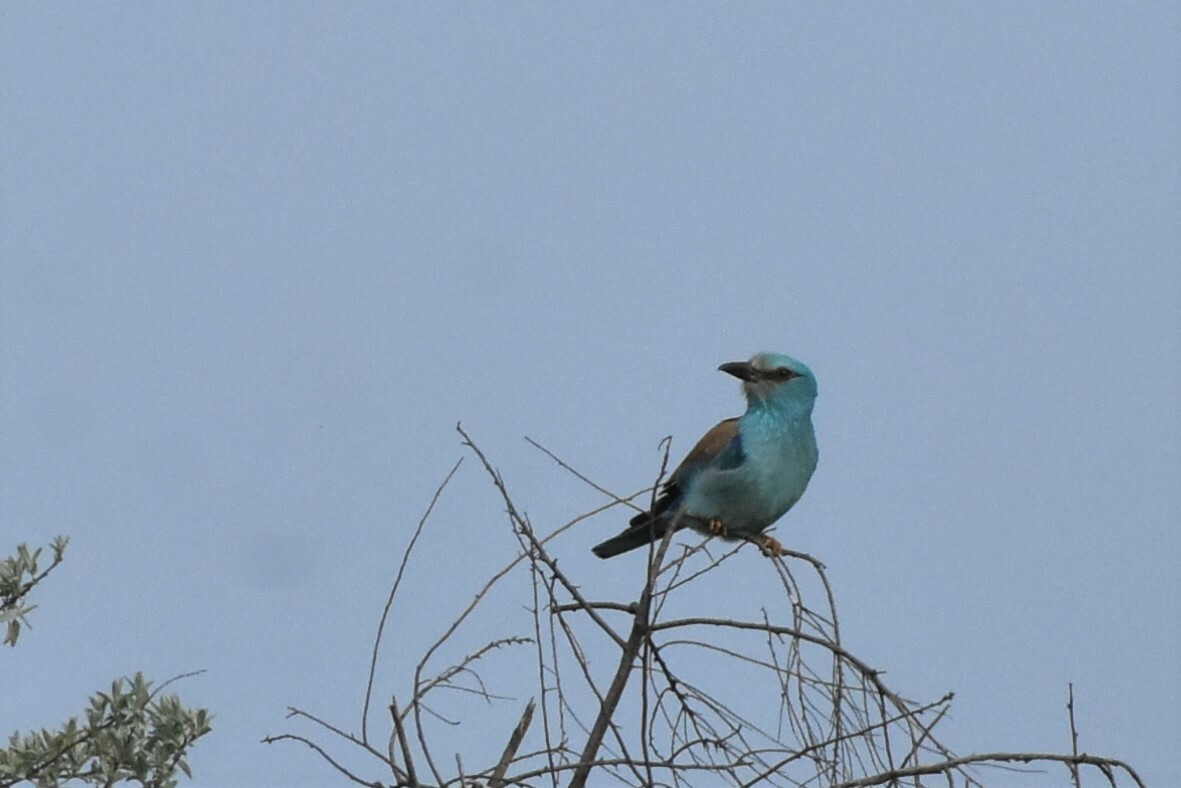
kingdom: Animalia
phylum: Chordata
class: Aves
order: Coraciiformes
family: Coraciidae
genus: Coracias
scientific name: Coracias garrulus
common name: European roller
